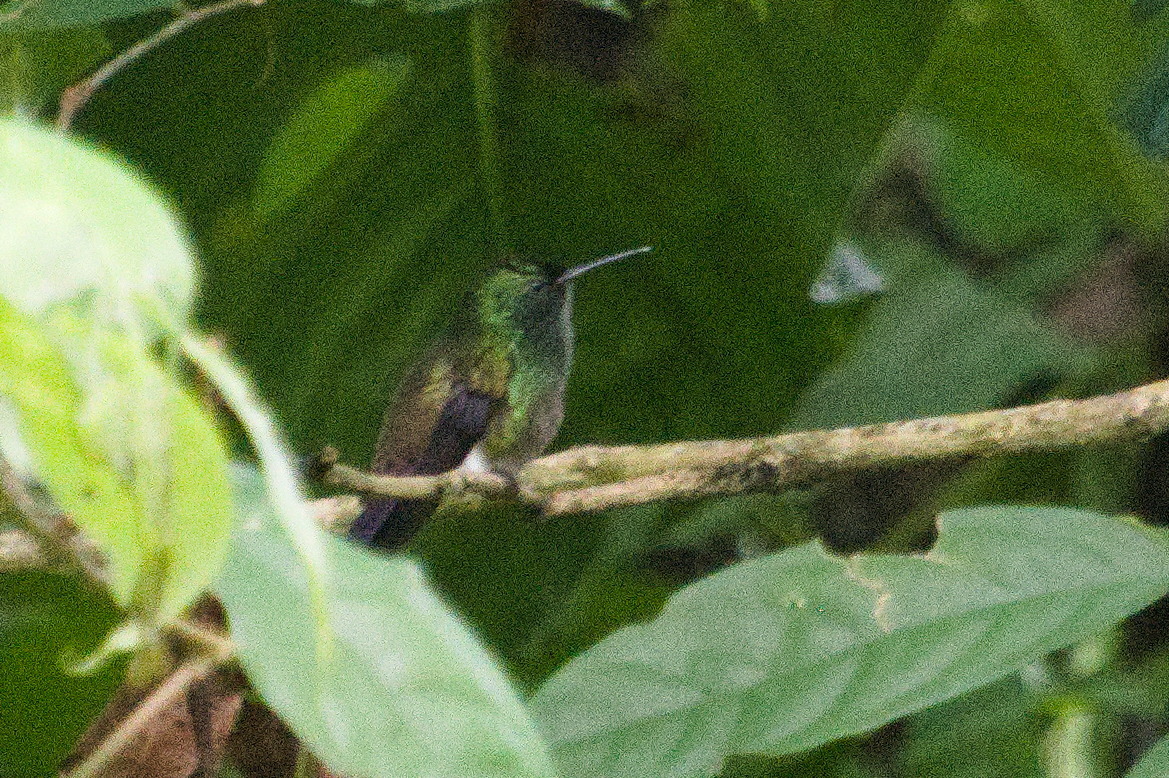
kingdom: Animalia
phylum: Chordata
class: Aves
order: Apodiformes
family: Trochilidae
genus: Saucerottia
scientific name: Saucerottia viridigaster
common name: Green-bellied hummingbird
